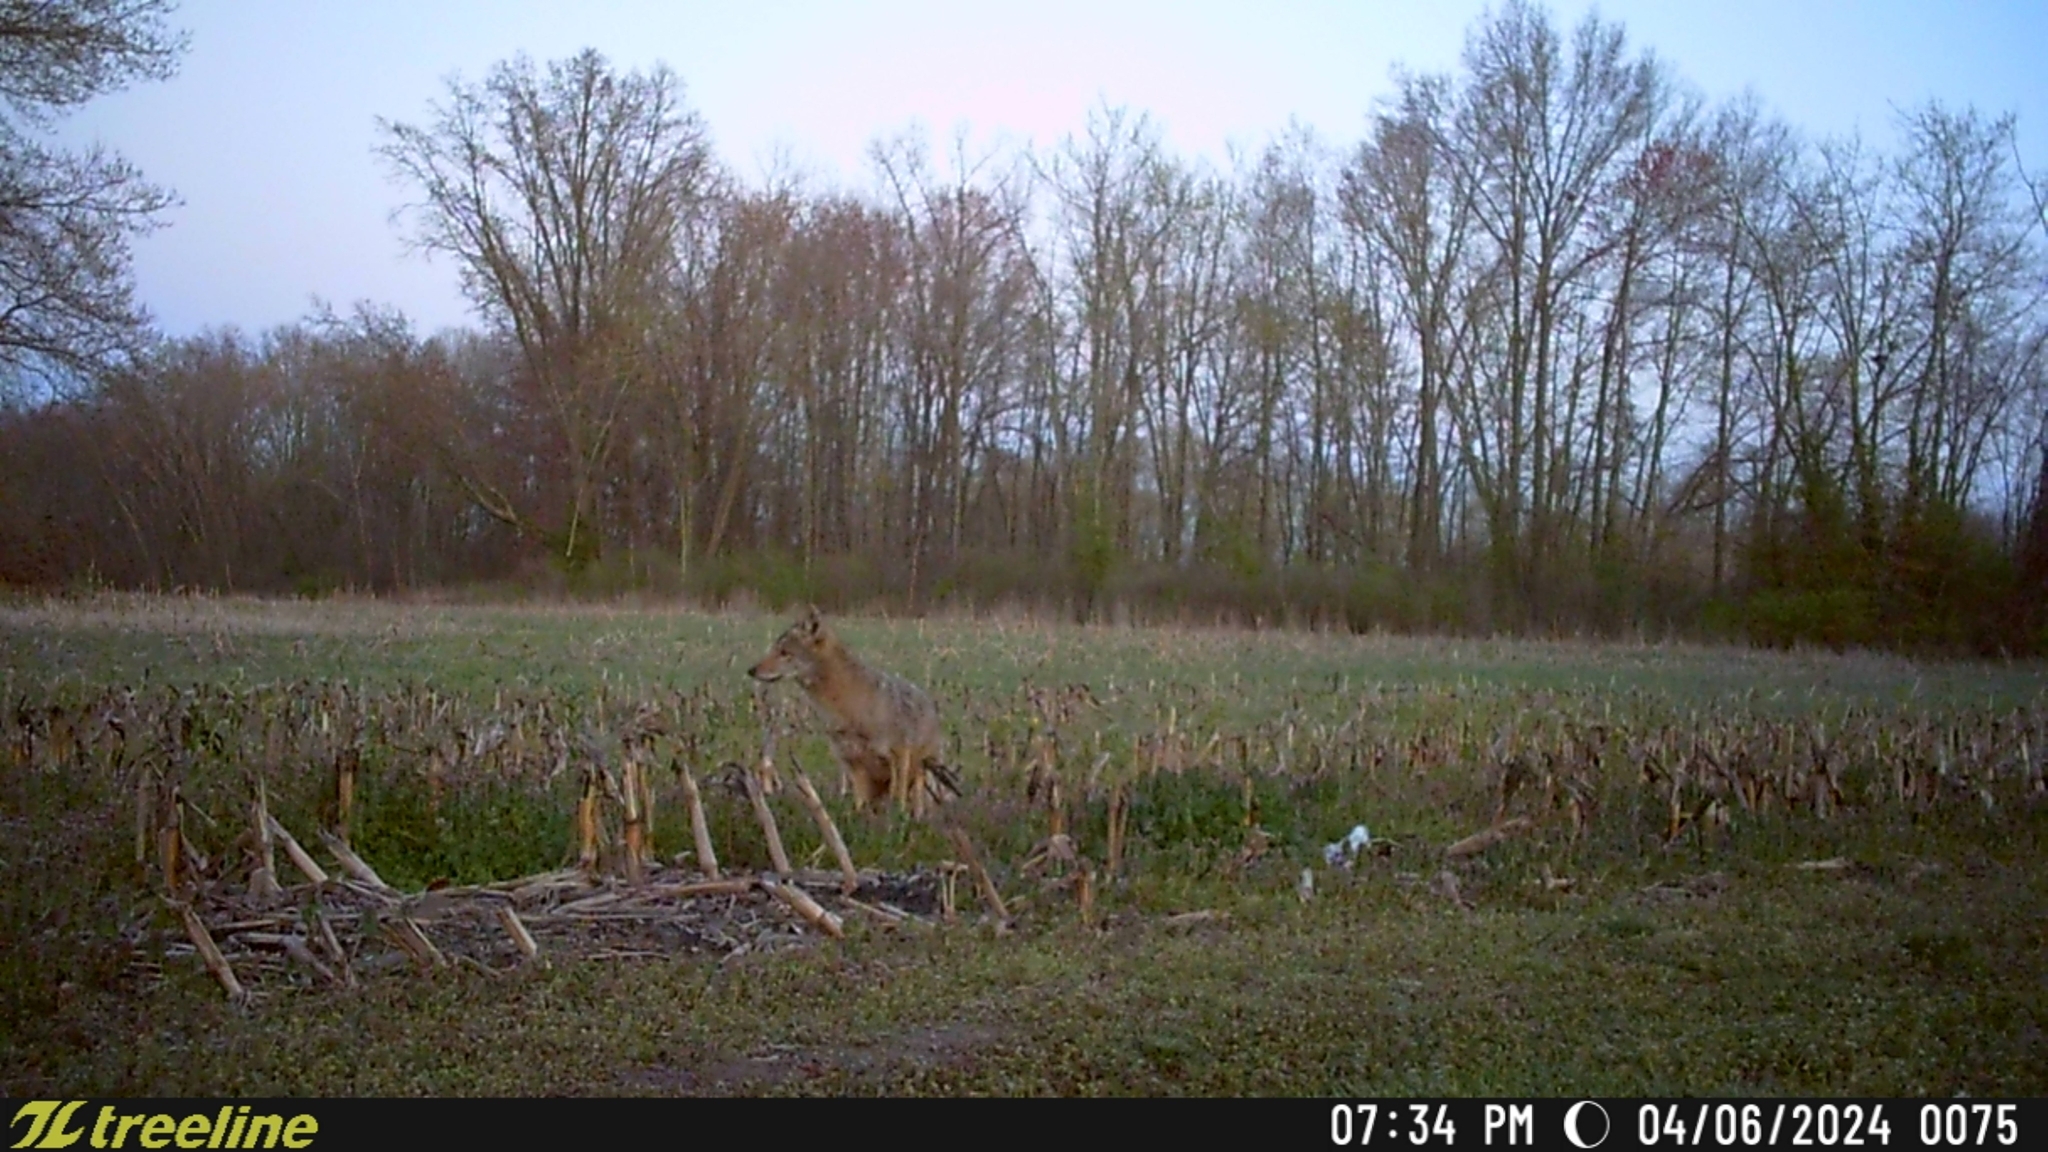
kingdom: Animalia
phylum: Chordata
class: Mammalia
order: Carnivora
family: Canidae
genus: Canis
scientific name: Canis latrans
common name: Coyote
